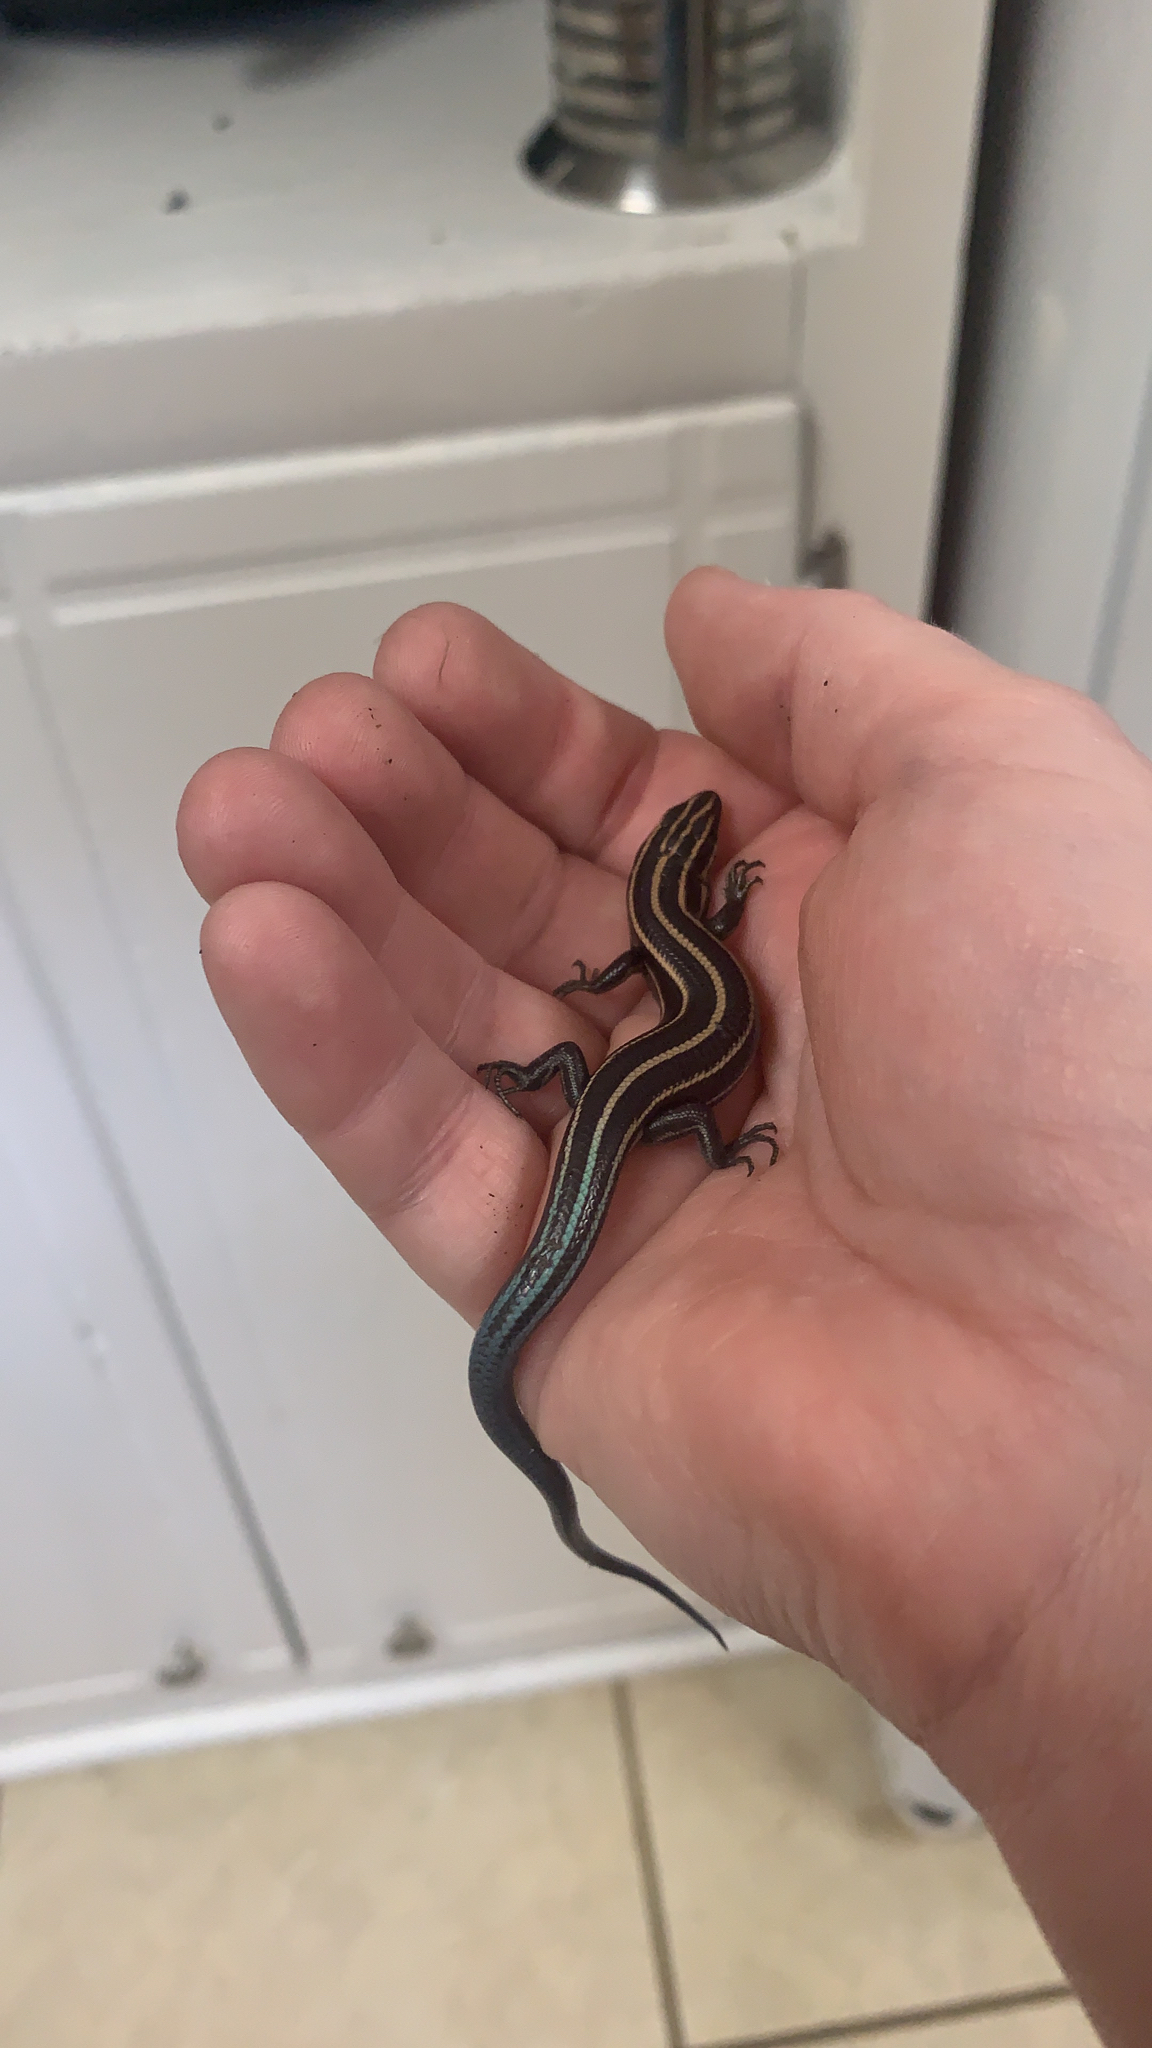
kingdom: Animalia
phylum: Chordata
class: Squamata
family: Scincidae
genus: Plestiodon
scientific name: Plestiodon fasciatus
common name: Five-lined skink
